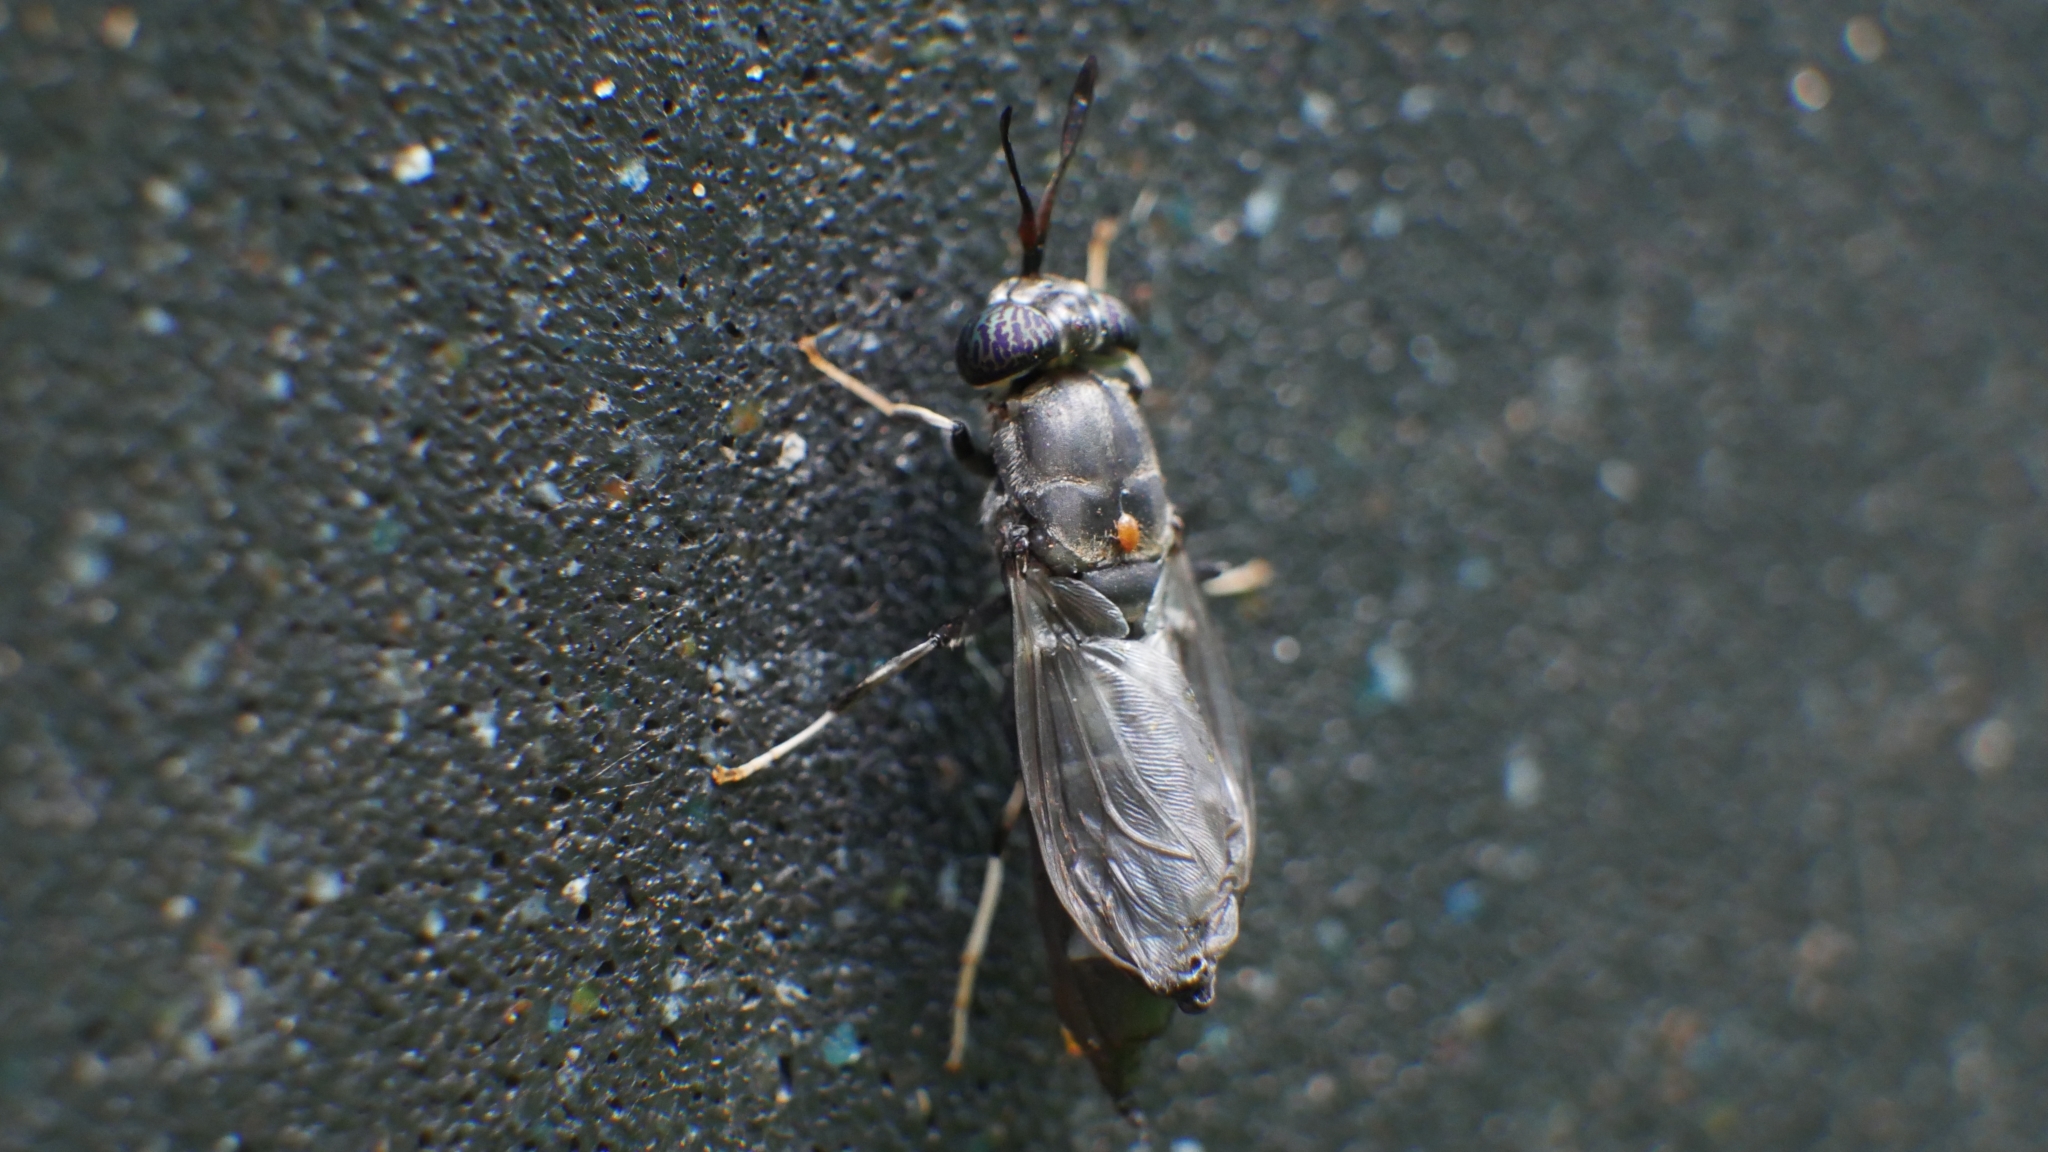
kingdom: Animalia
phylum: Arthropoda
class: Insecta
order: Diptera
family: Stratiomyidae
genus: Hermetia
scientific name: Hermetia illucens
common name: Black soldier fly
